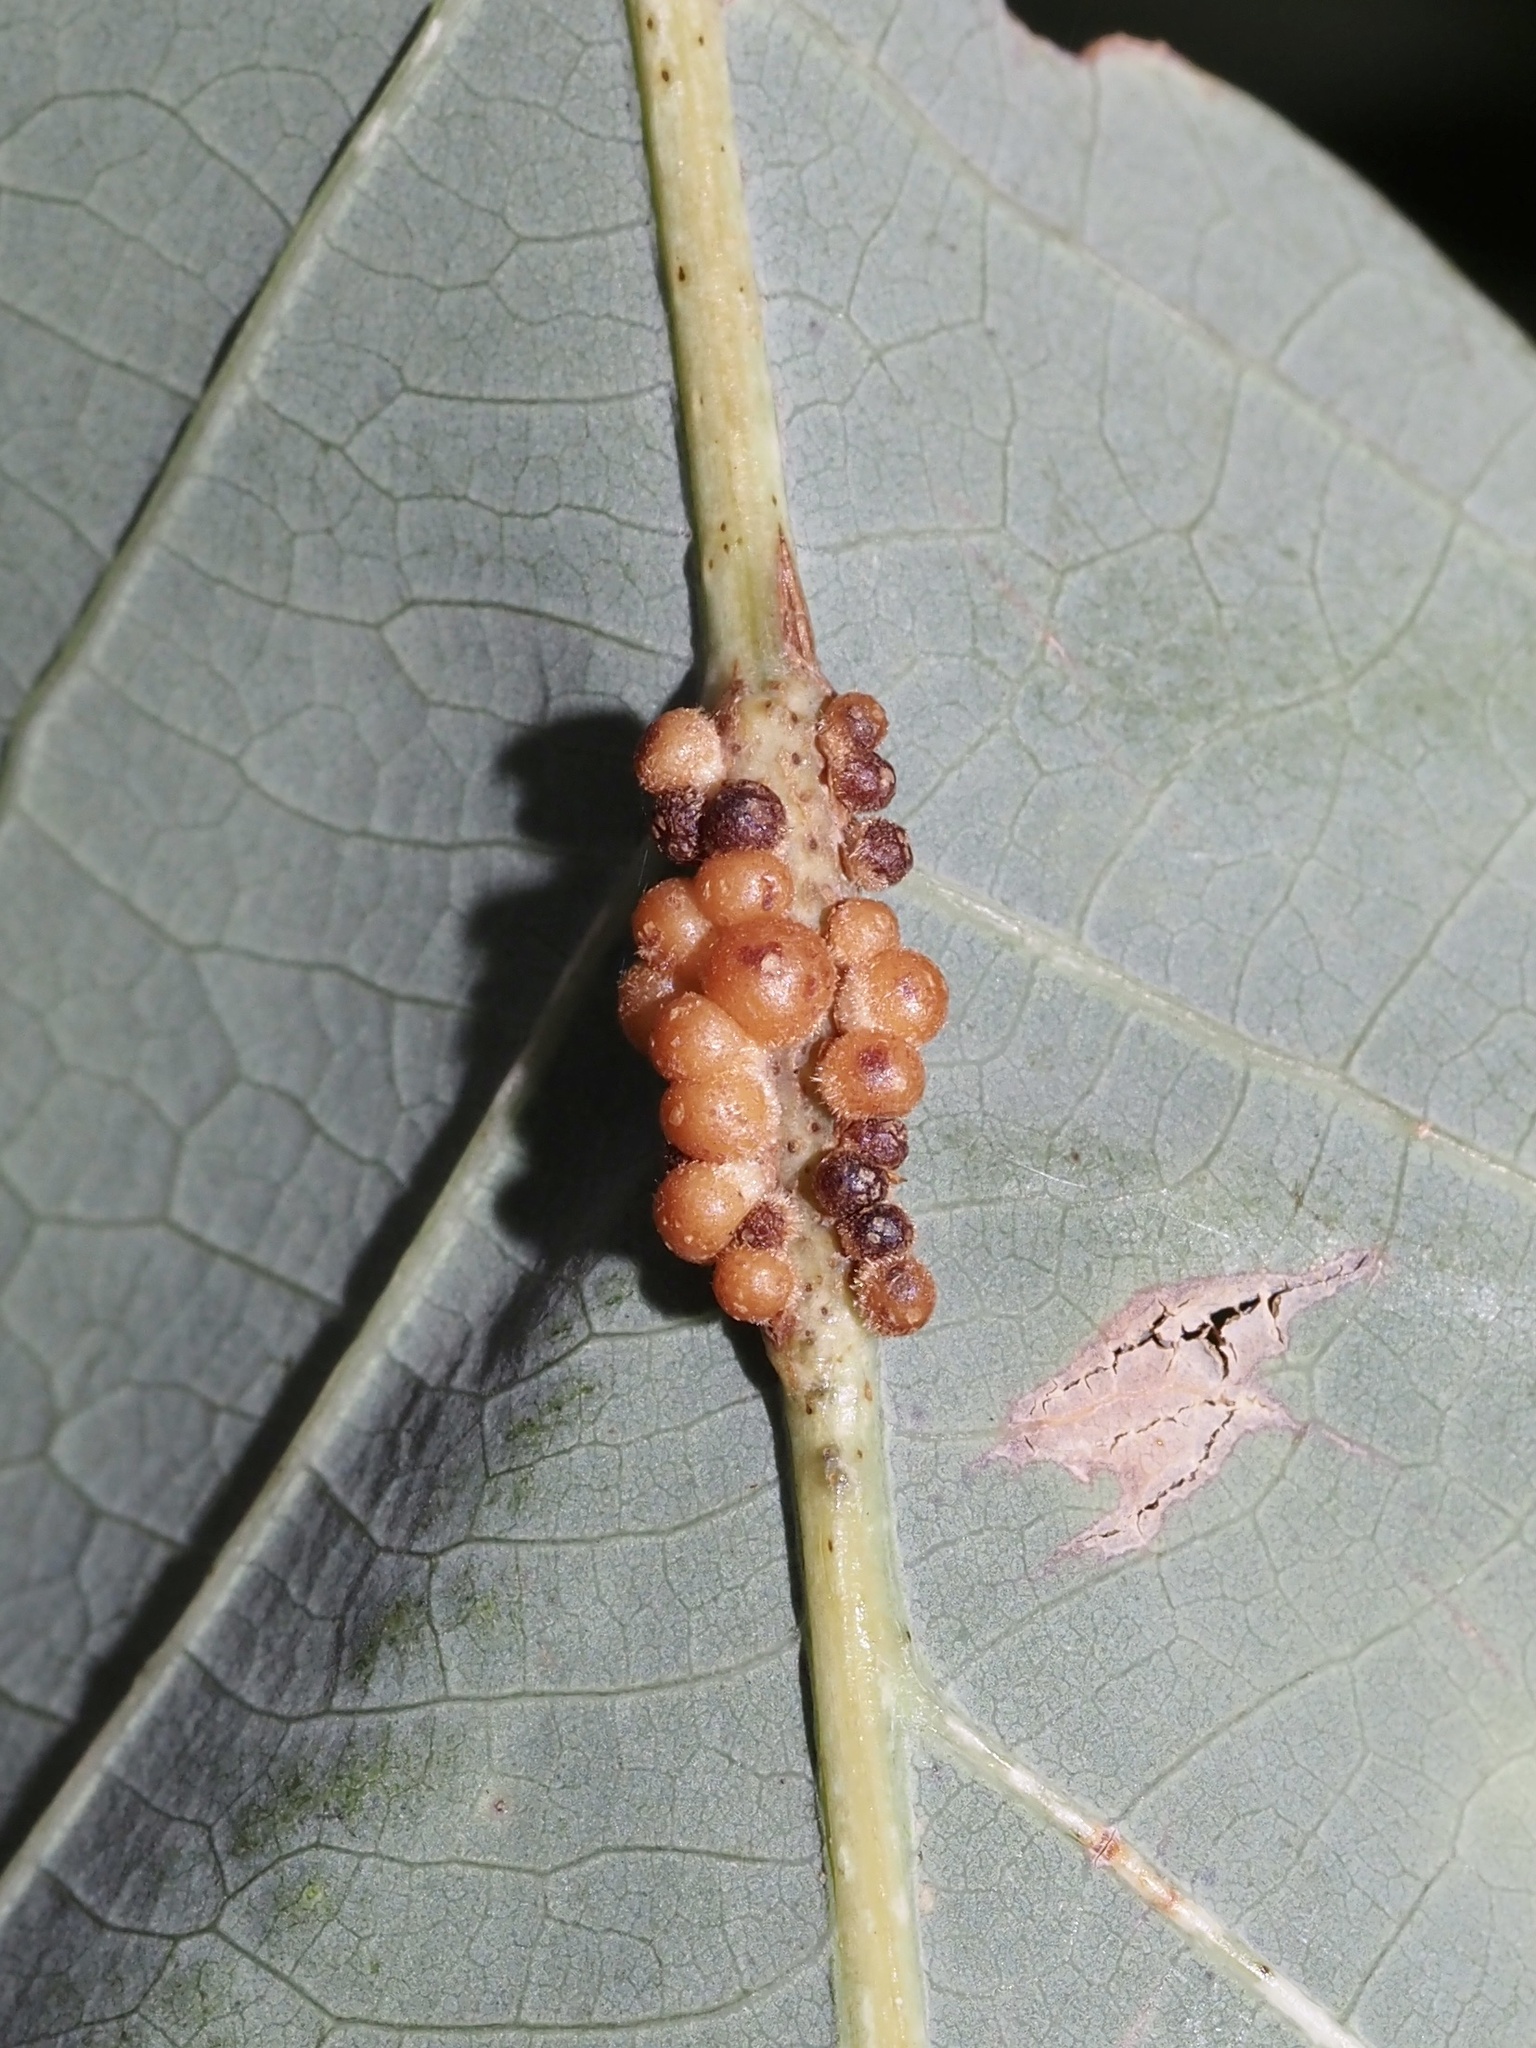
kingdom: Animalia
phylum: Arthropoda
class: Insecta
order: Hymenoptera
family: Cynipidae
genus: Andricus
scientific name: Andricus
